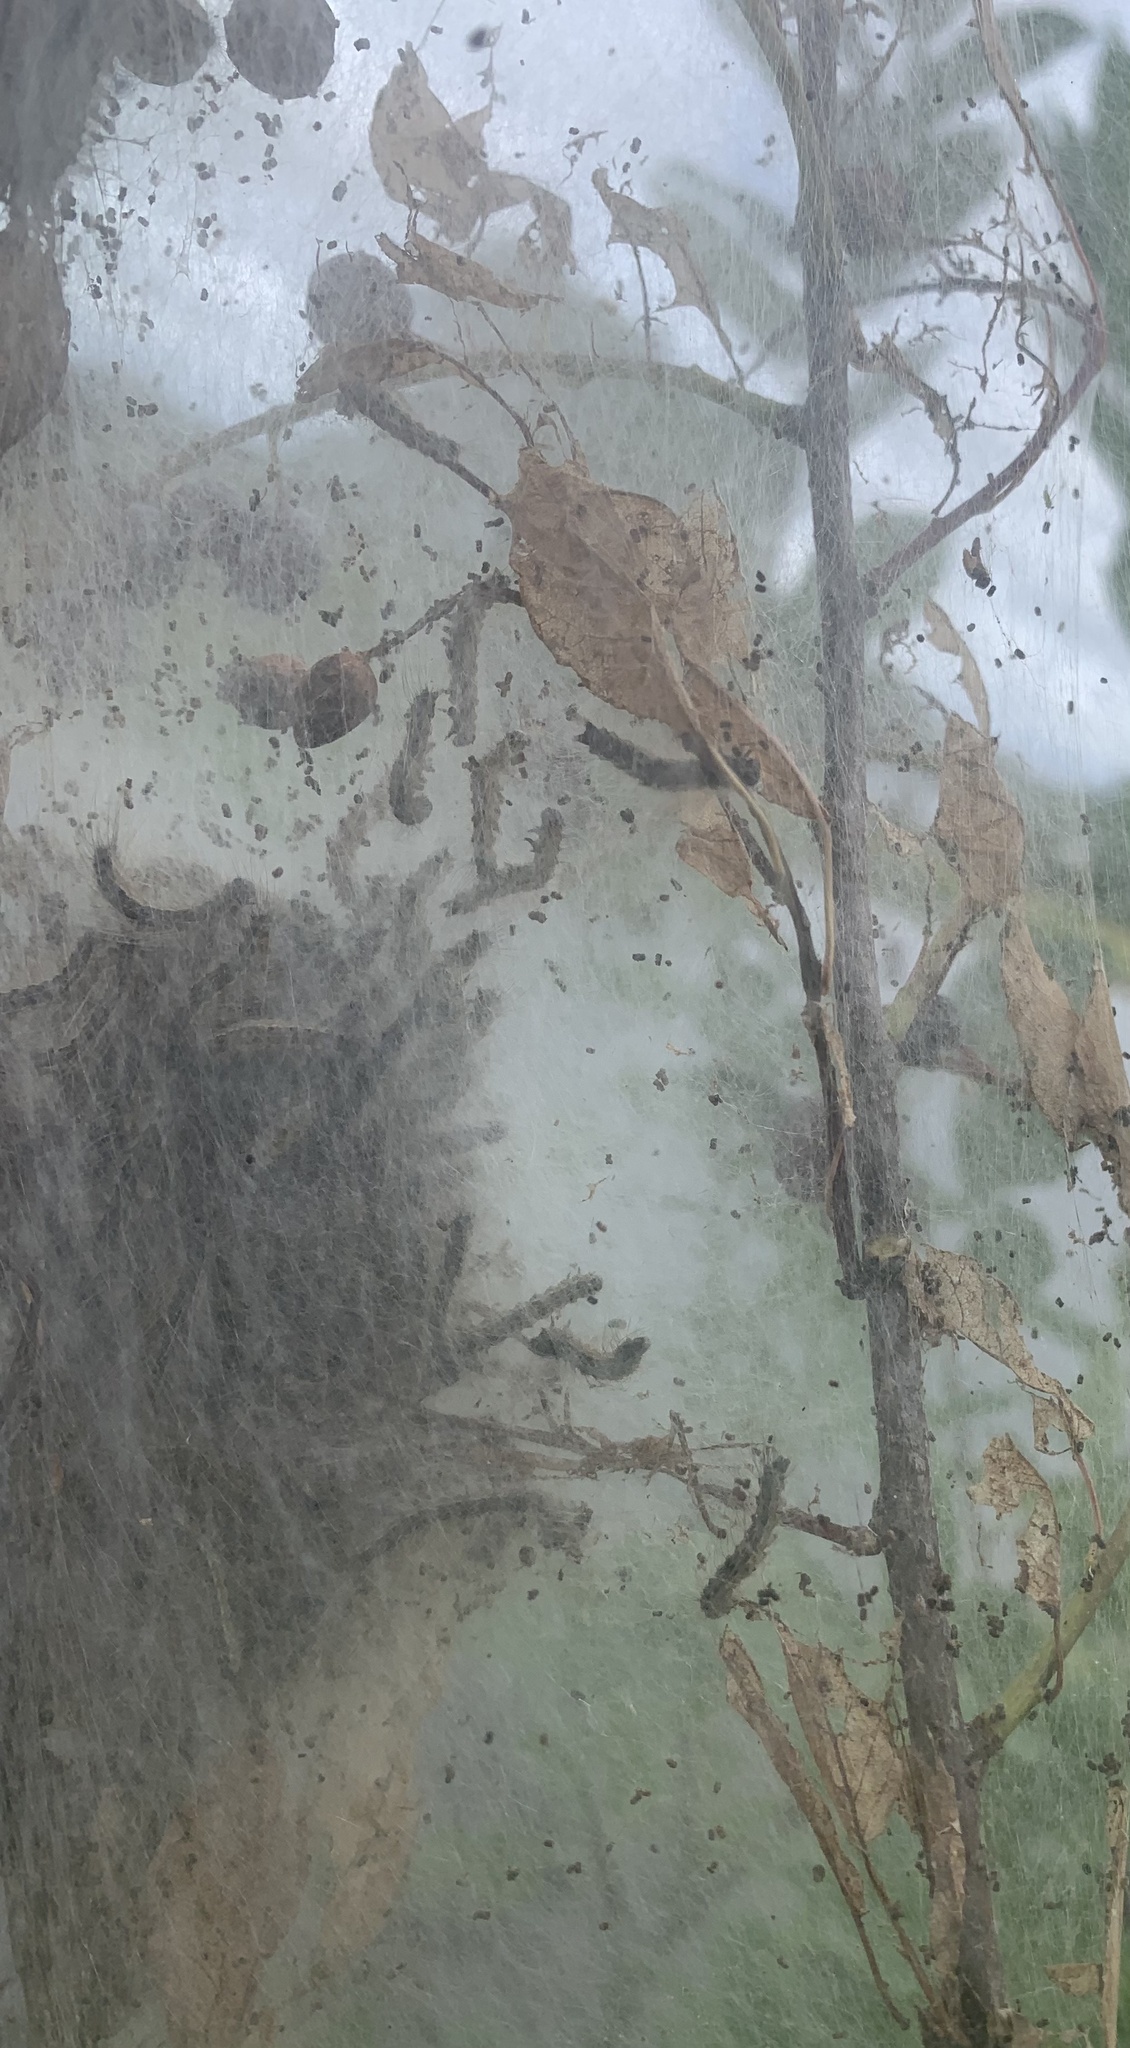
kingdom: Animalia
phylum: Arthropoda
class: Insecta
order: Lepidoptera
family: Erebidae
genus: Hyphantria
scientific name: Hyphantria cunea
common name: American white moth
